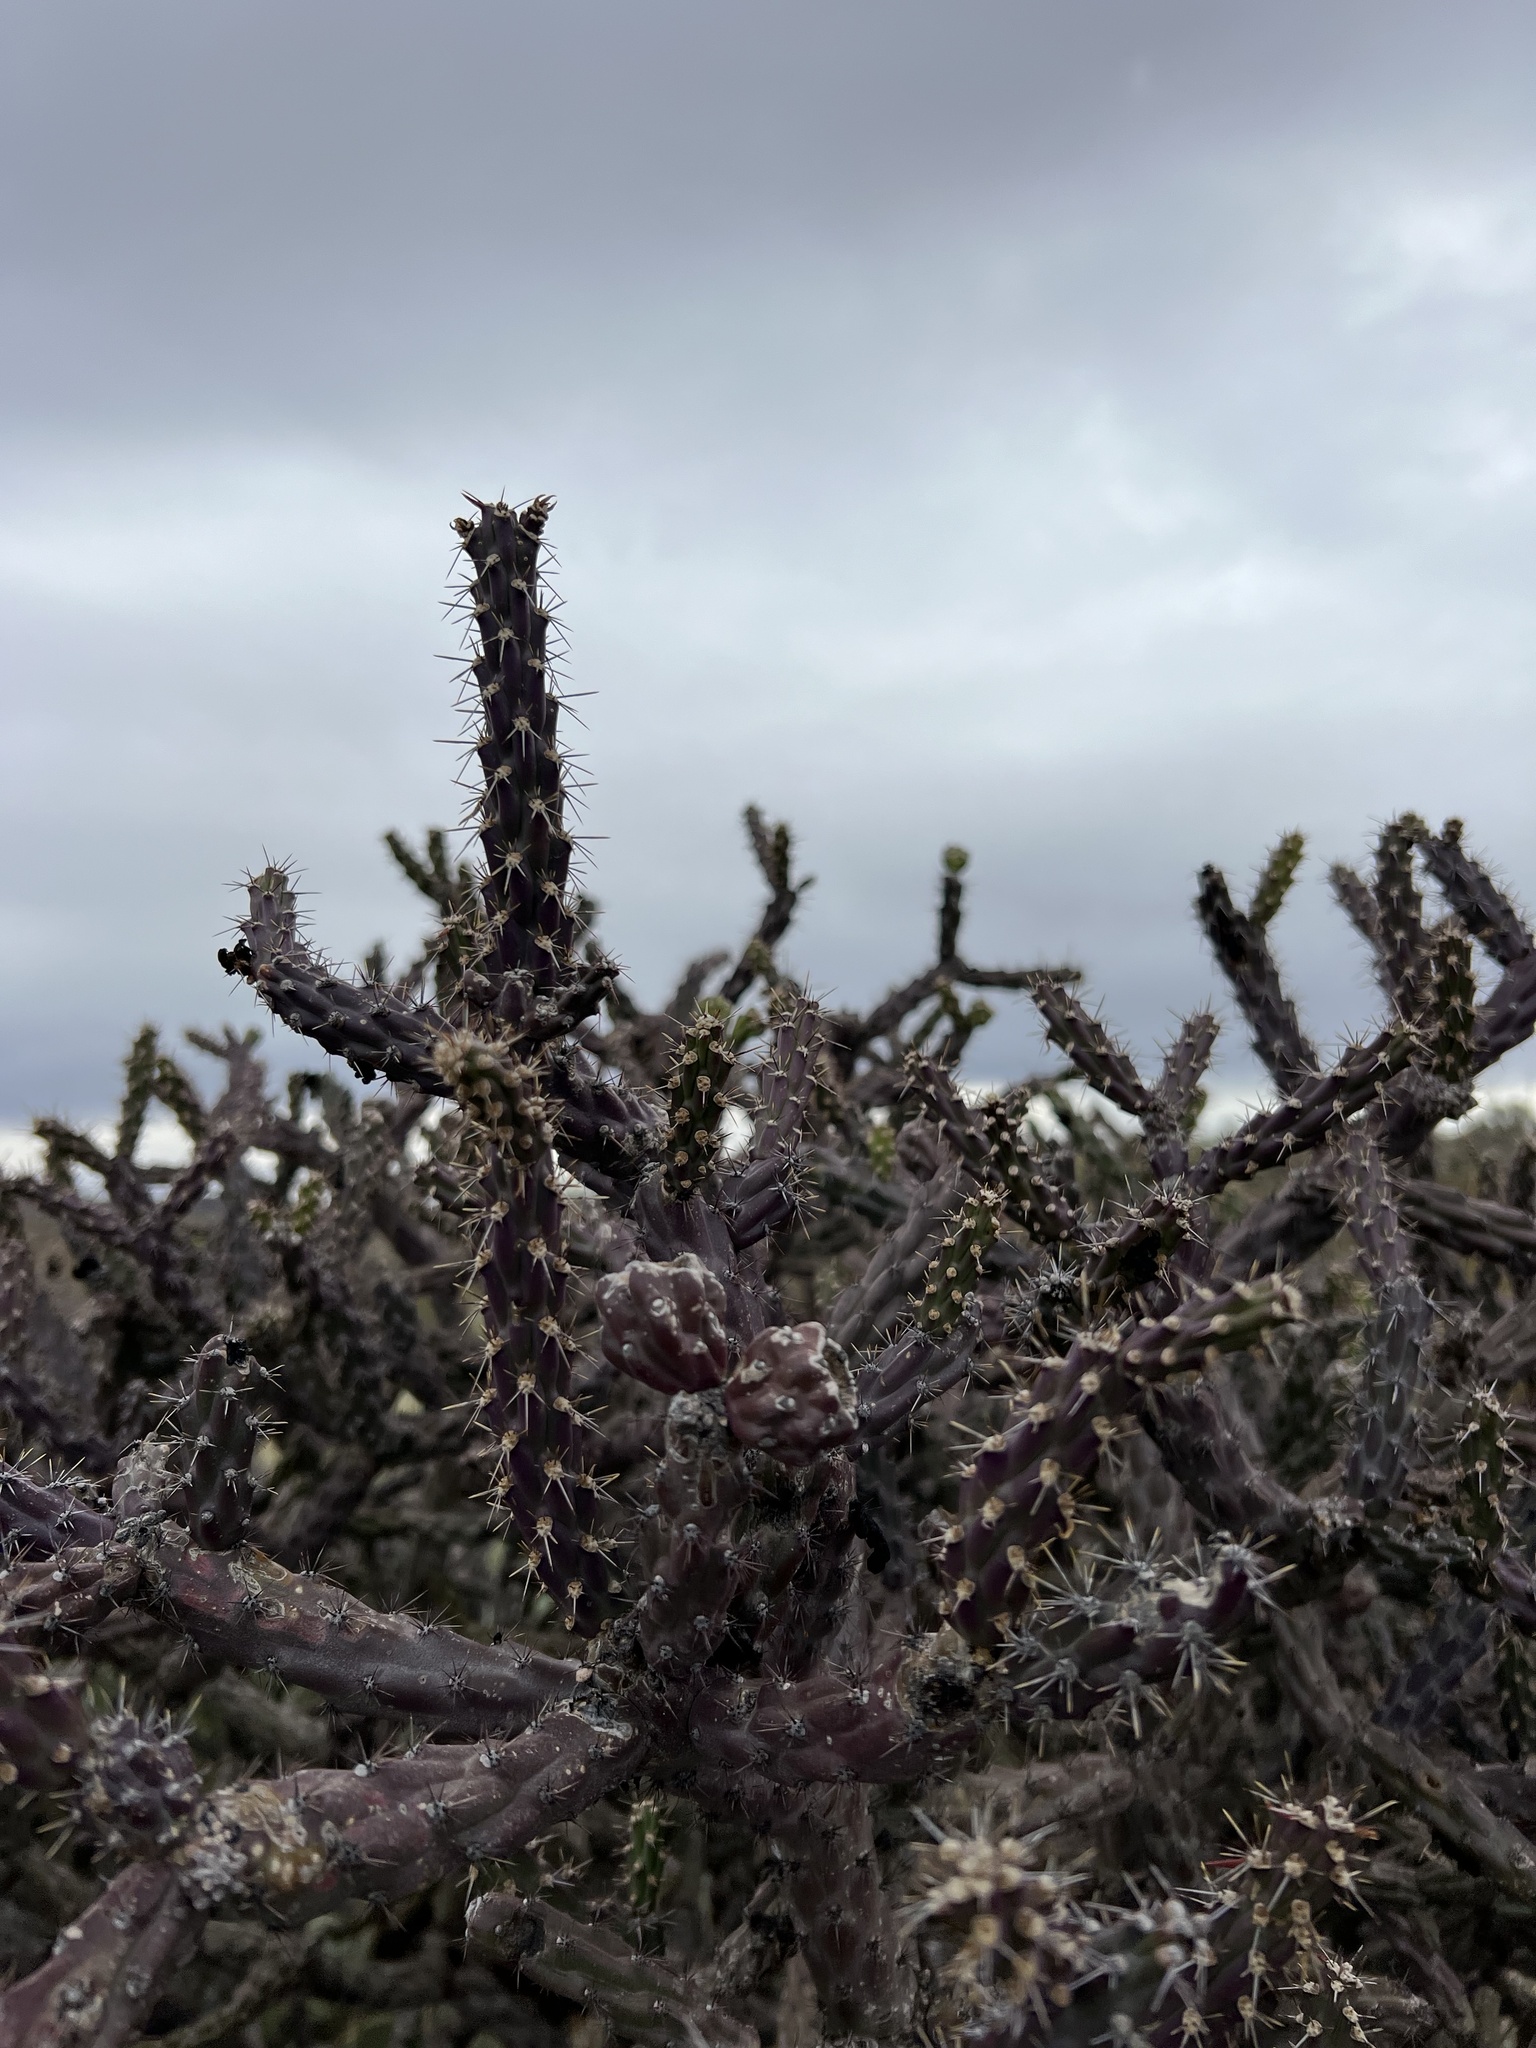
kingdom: Plantae
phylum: Tracheophyta
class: Magnoliopsida
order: Caryophyllales
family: Cactaceae
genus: Cylindropuntia
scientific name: Cylindropuntia thurberi
